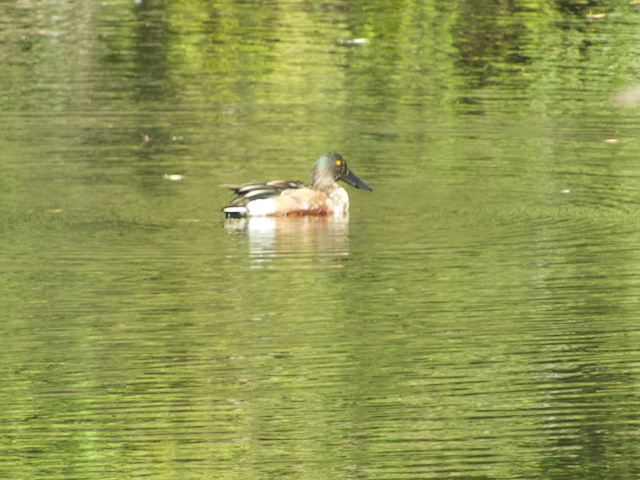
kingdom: Animalia
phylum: Chordata
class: Aves
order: Anseriformes
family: Anatidae
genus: Spatula
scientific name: Spatula clypeata
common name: Northern shoveler
